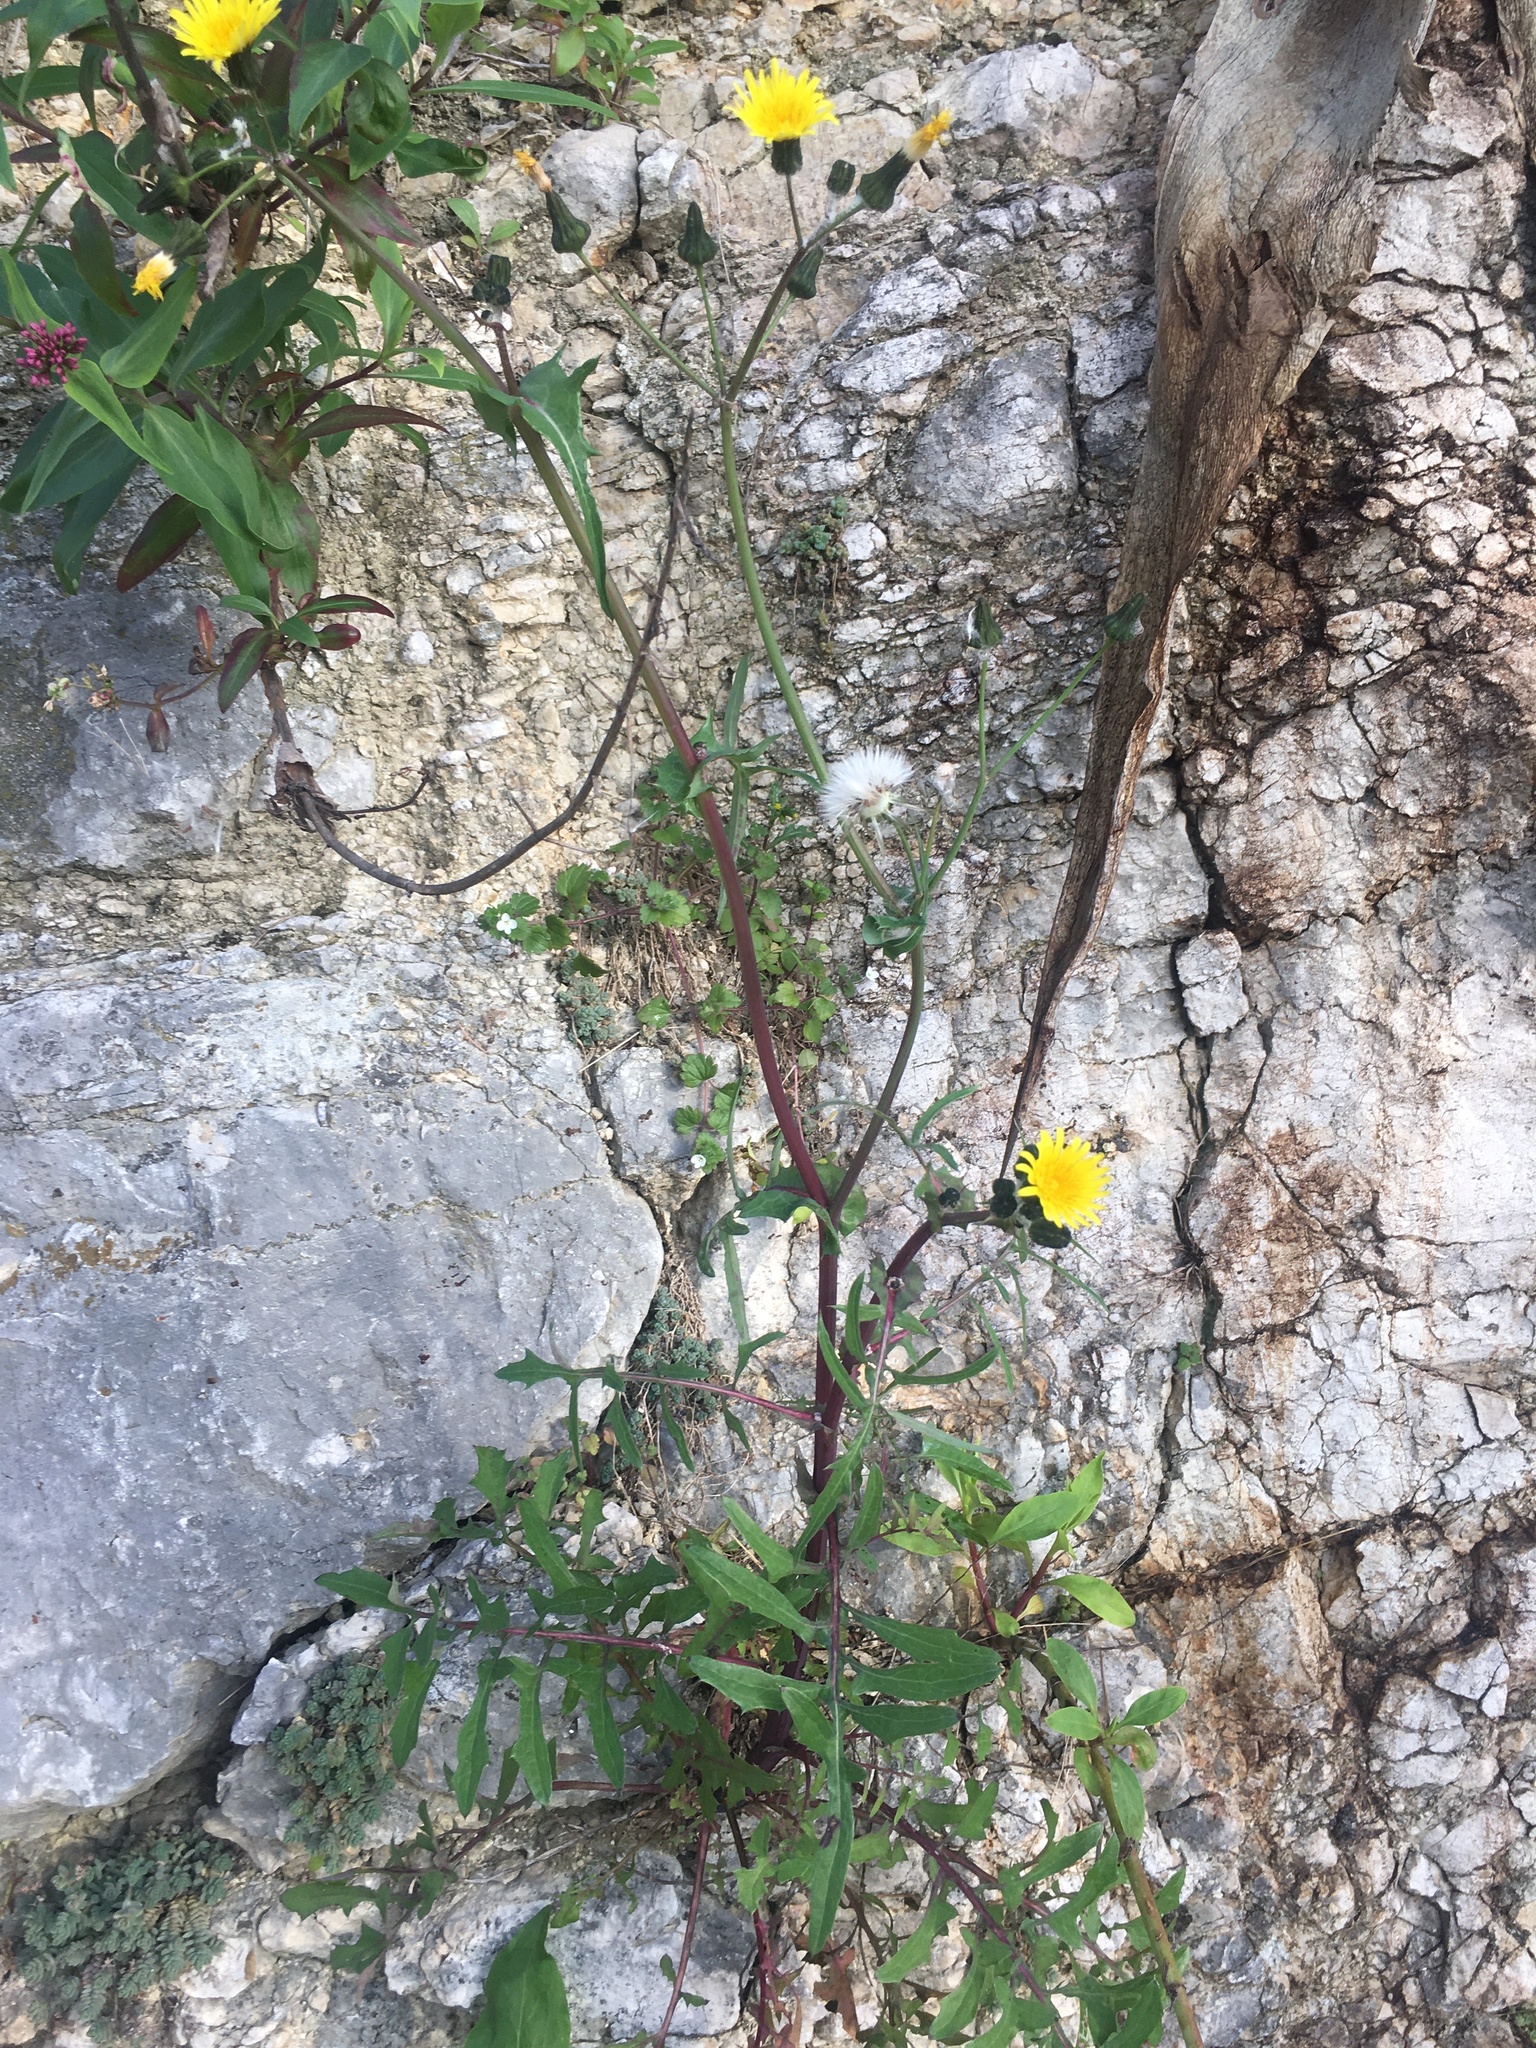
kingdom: Plantae
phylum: Tracheophyta
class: Magnoliopsida
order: Asterales
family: Asteraceae
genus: Sonchus
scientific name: Sonchus oleraceus
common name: Common sowthistle
